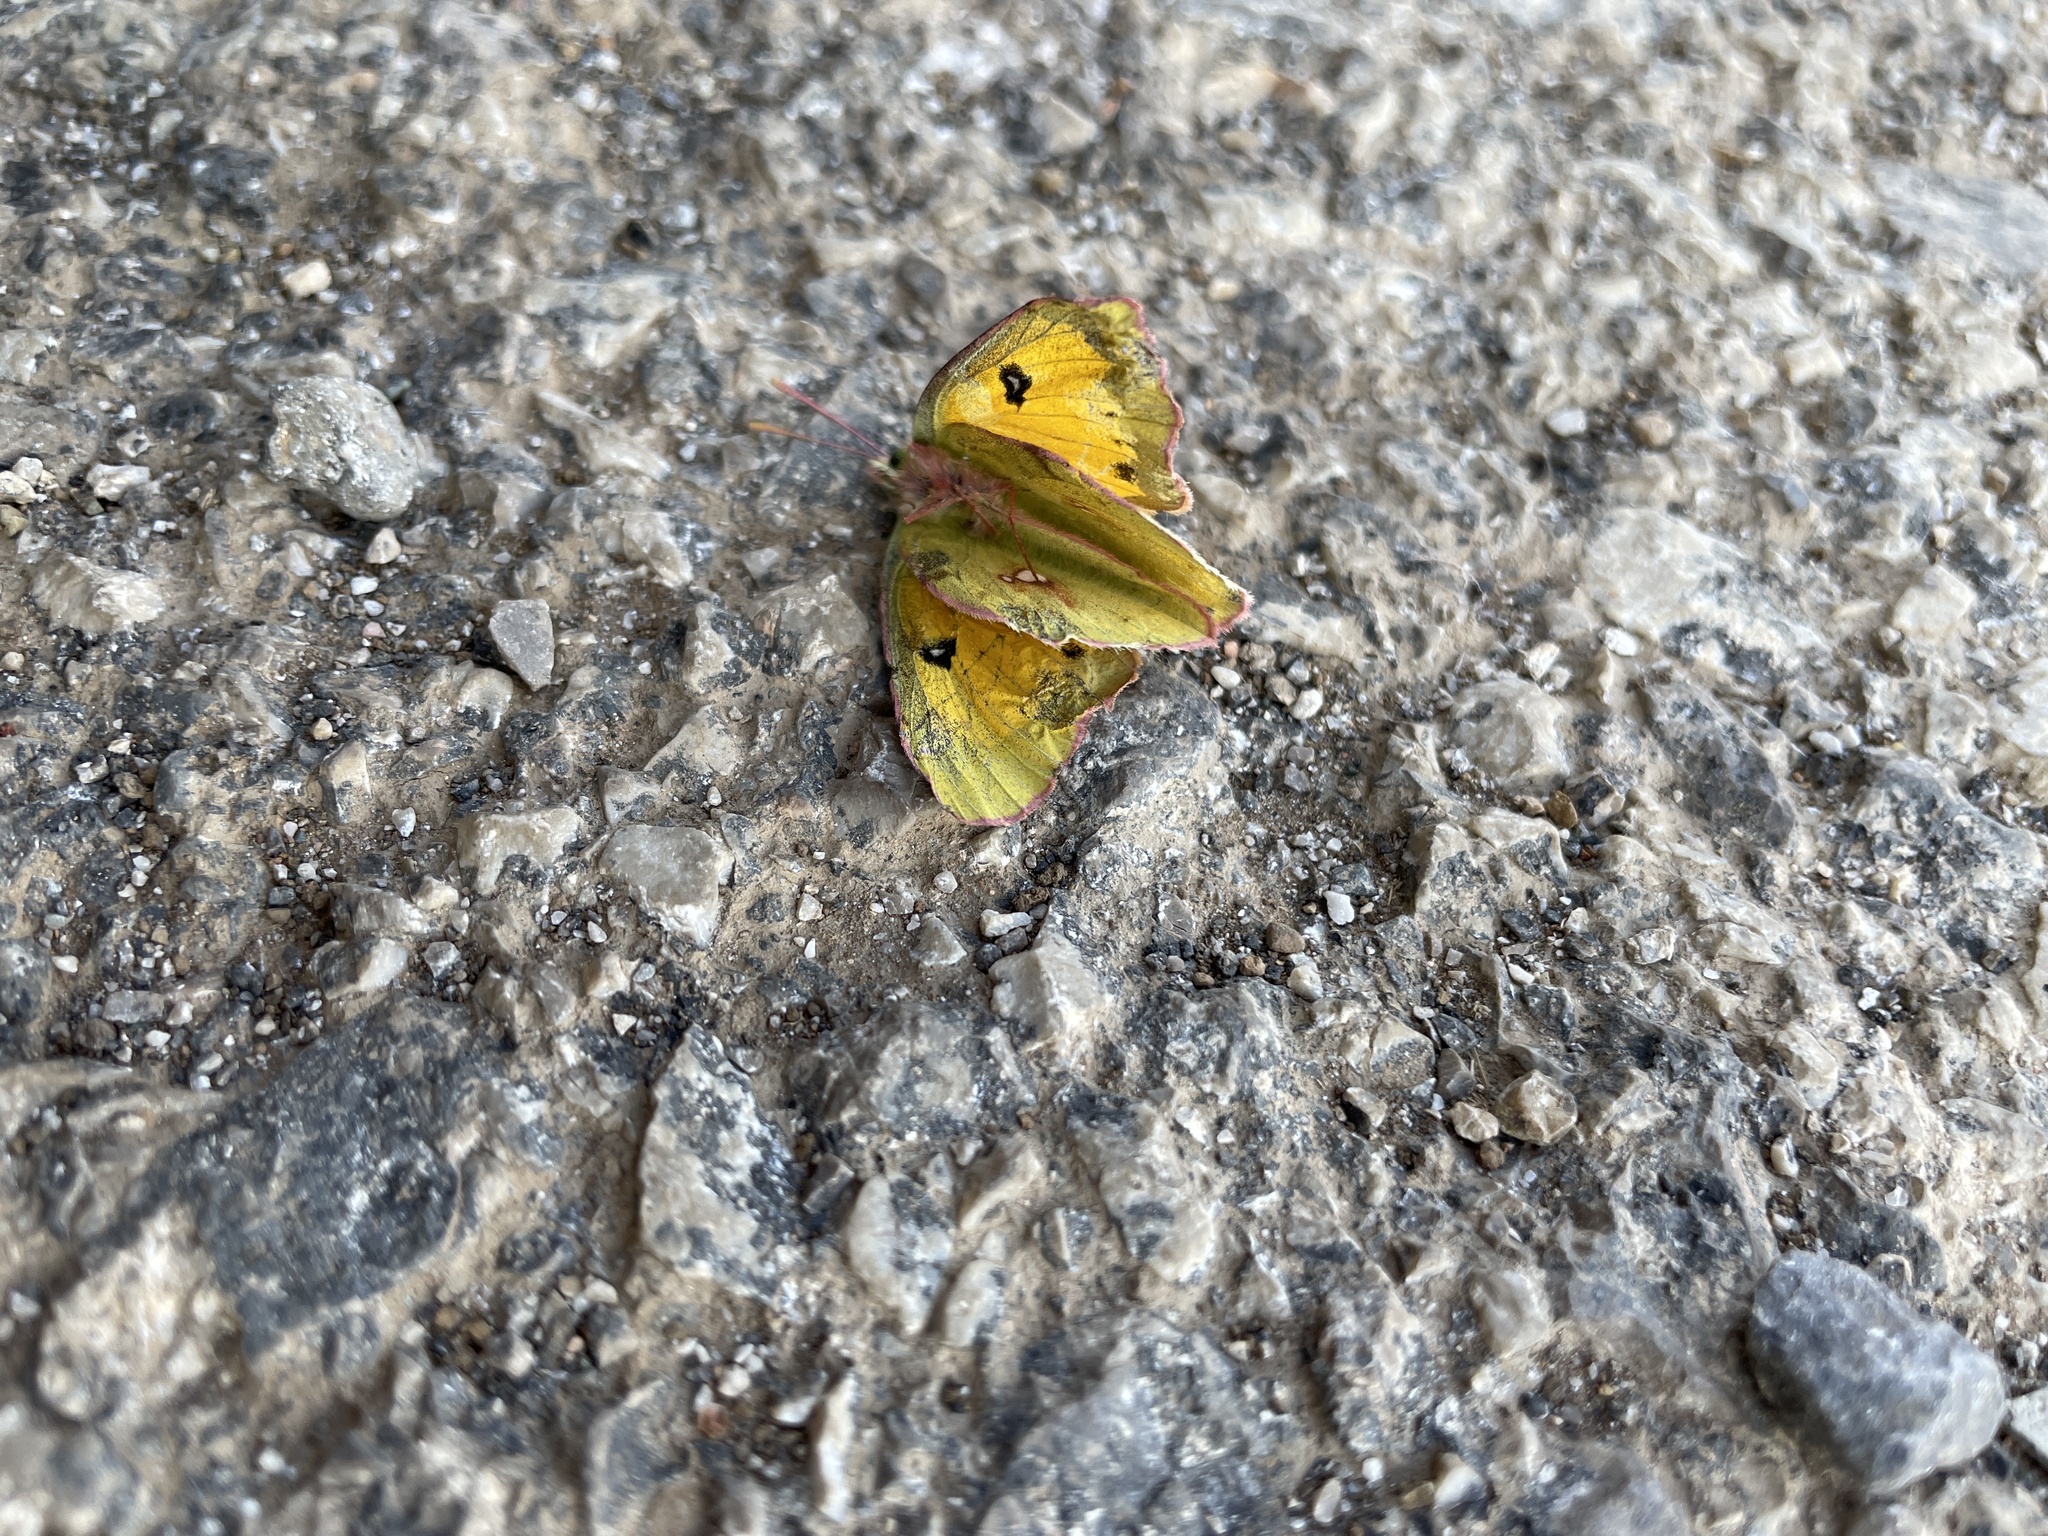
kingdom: Animalia
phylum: Arthropoda
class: Insecta
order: Lepidoptera
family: Pieridae
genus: Colias
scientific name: Colias fieldii
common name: Dark clouded yellow
